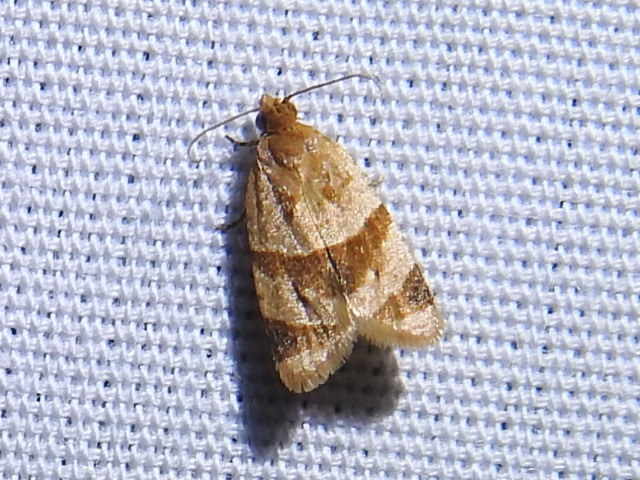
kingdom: Animalia
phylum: Arthropoda
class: Insecta
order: Lepidoptera
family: Tortricidae
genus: Clepsis
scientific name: Clepsis peritana
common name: Garden tortrix
